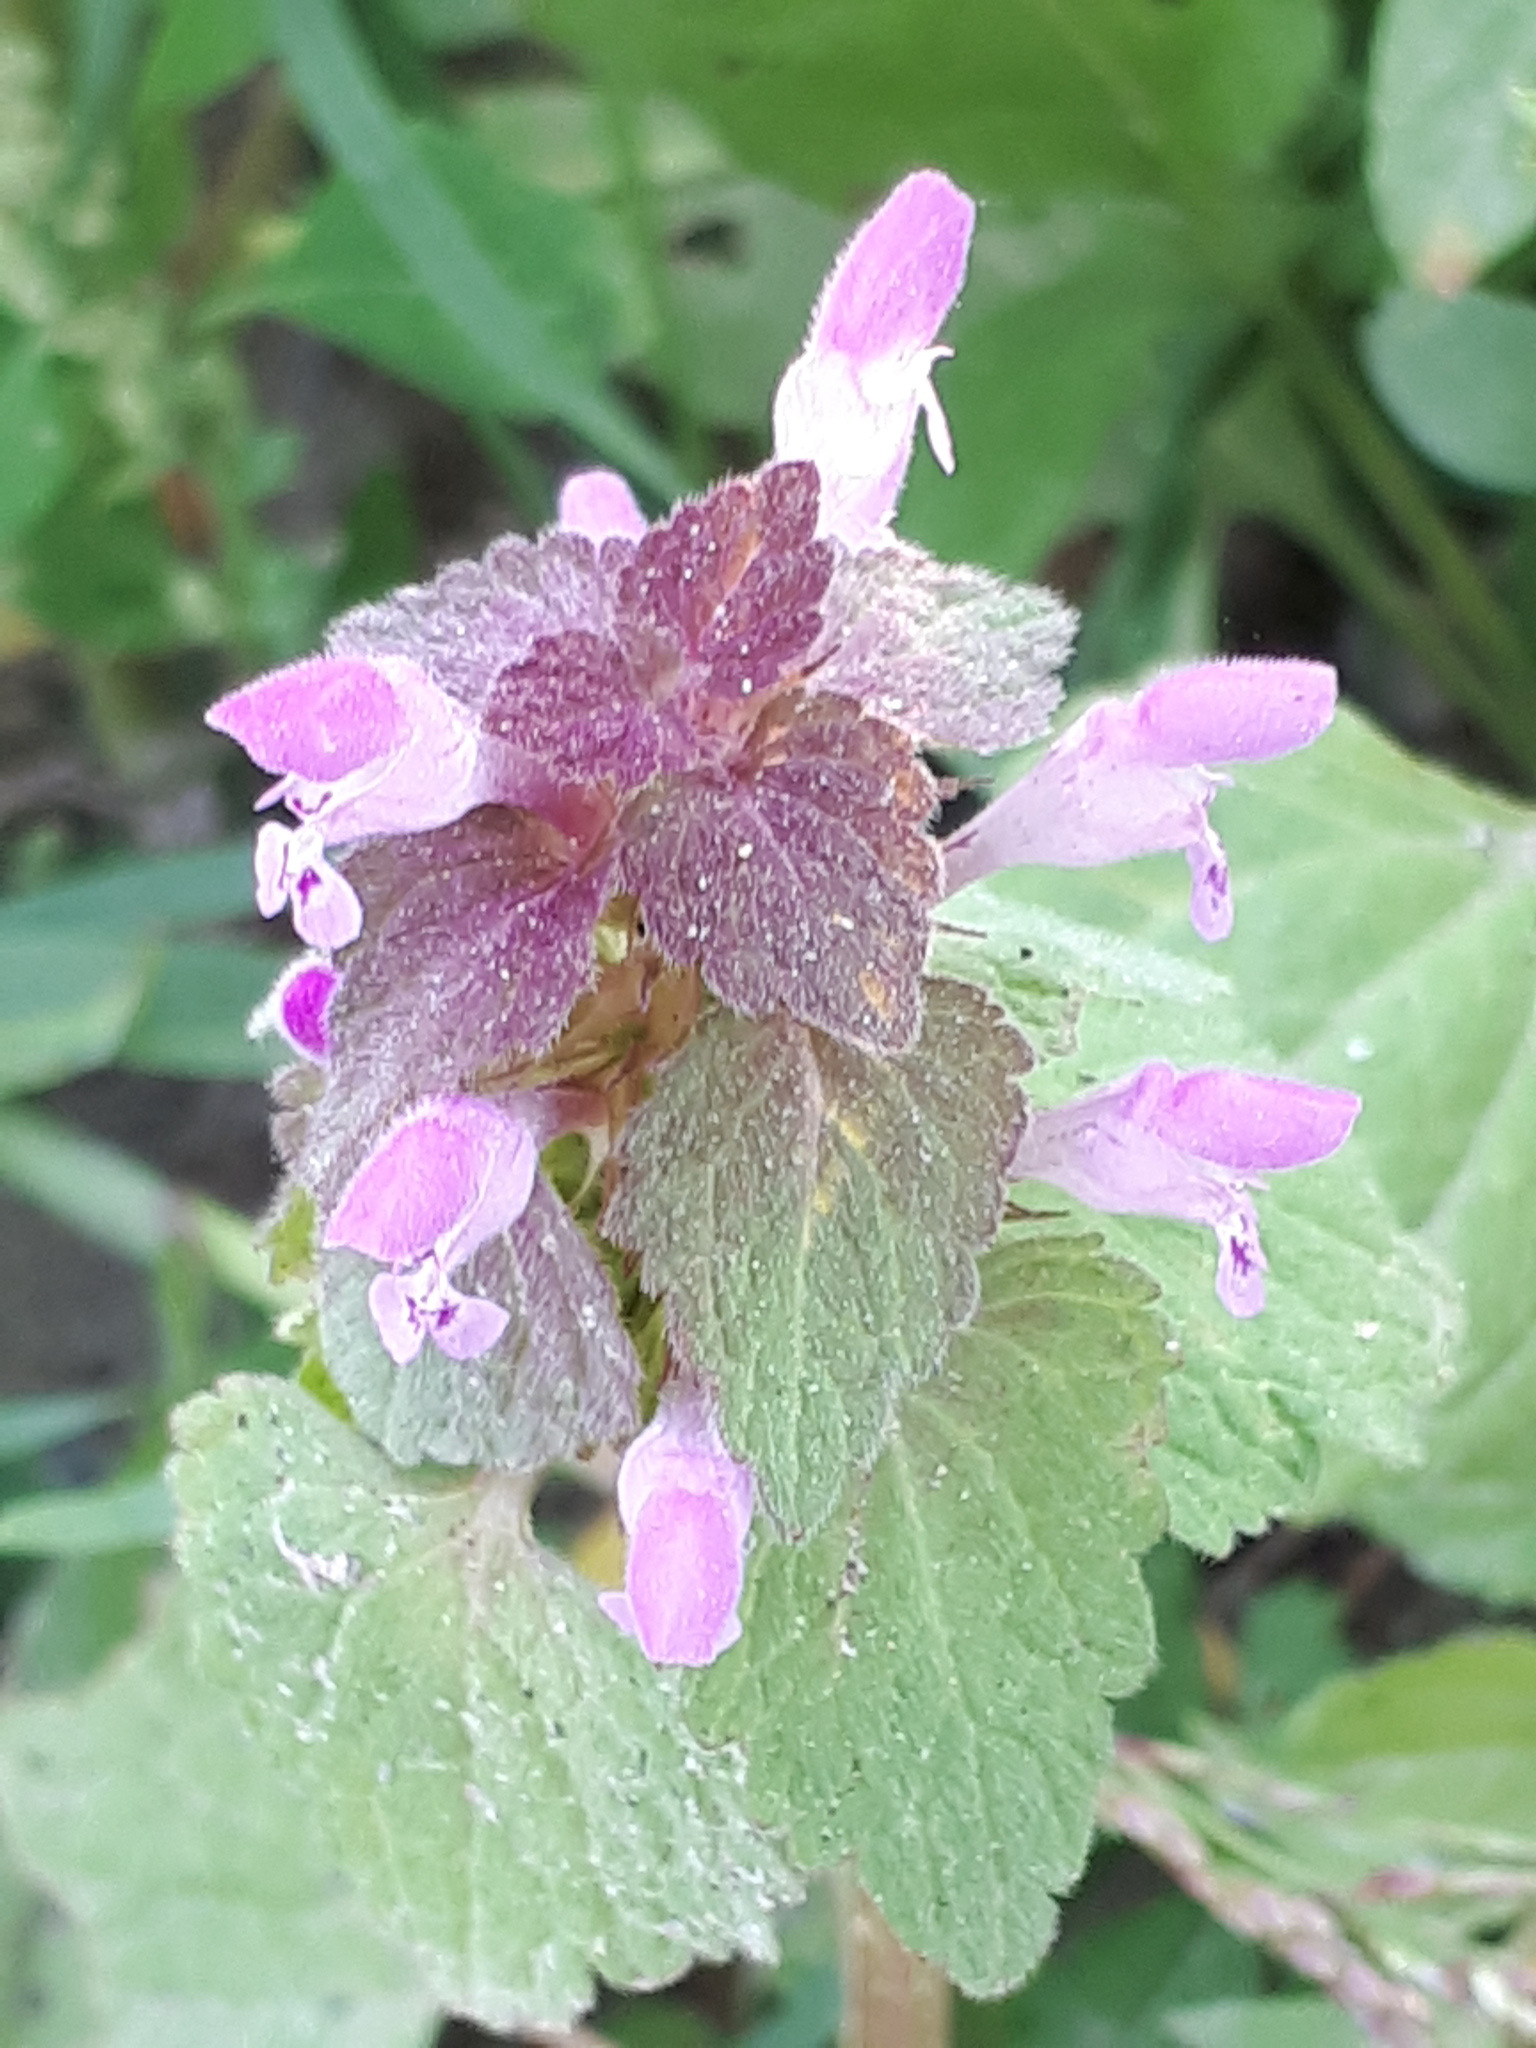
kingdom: Plantae
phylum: Tracheophyta
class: Magnoliopsida
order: Lamiales
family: Lamiaceae
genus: Lamium
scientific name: Lamium purpureum
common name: Red dead-nettle
